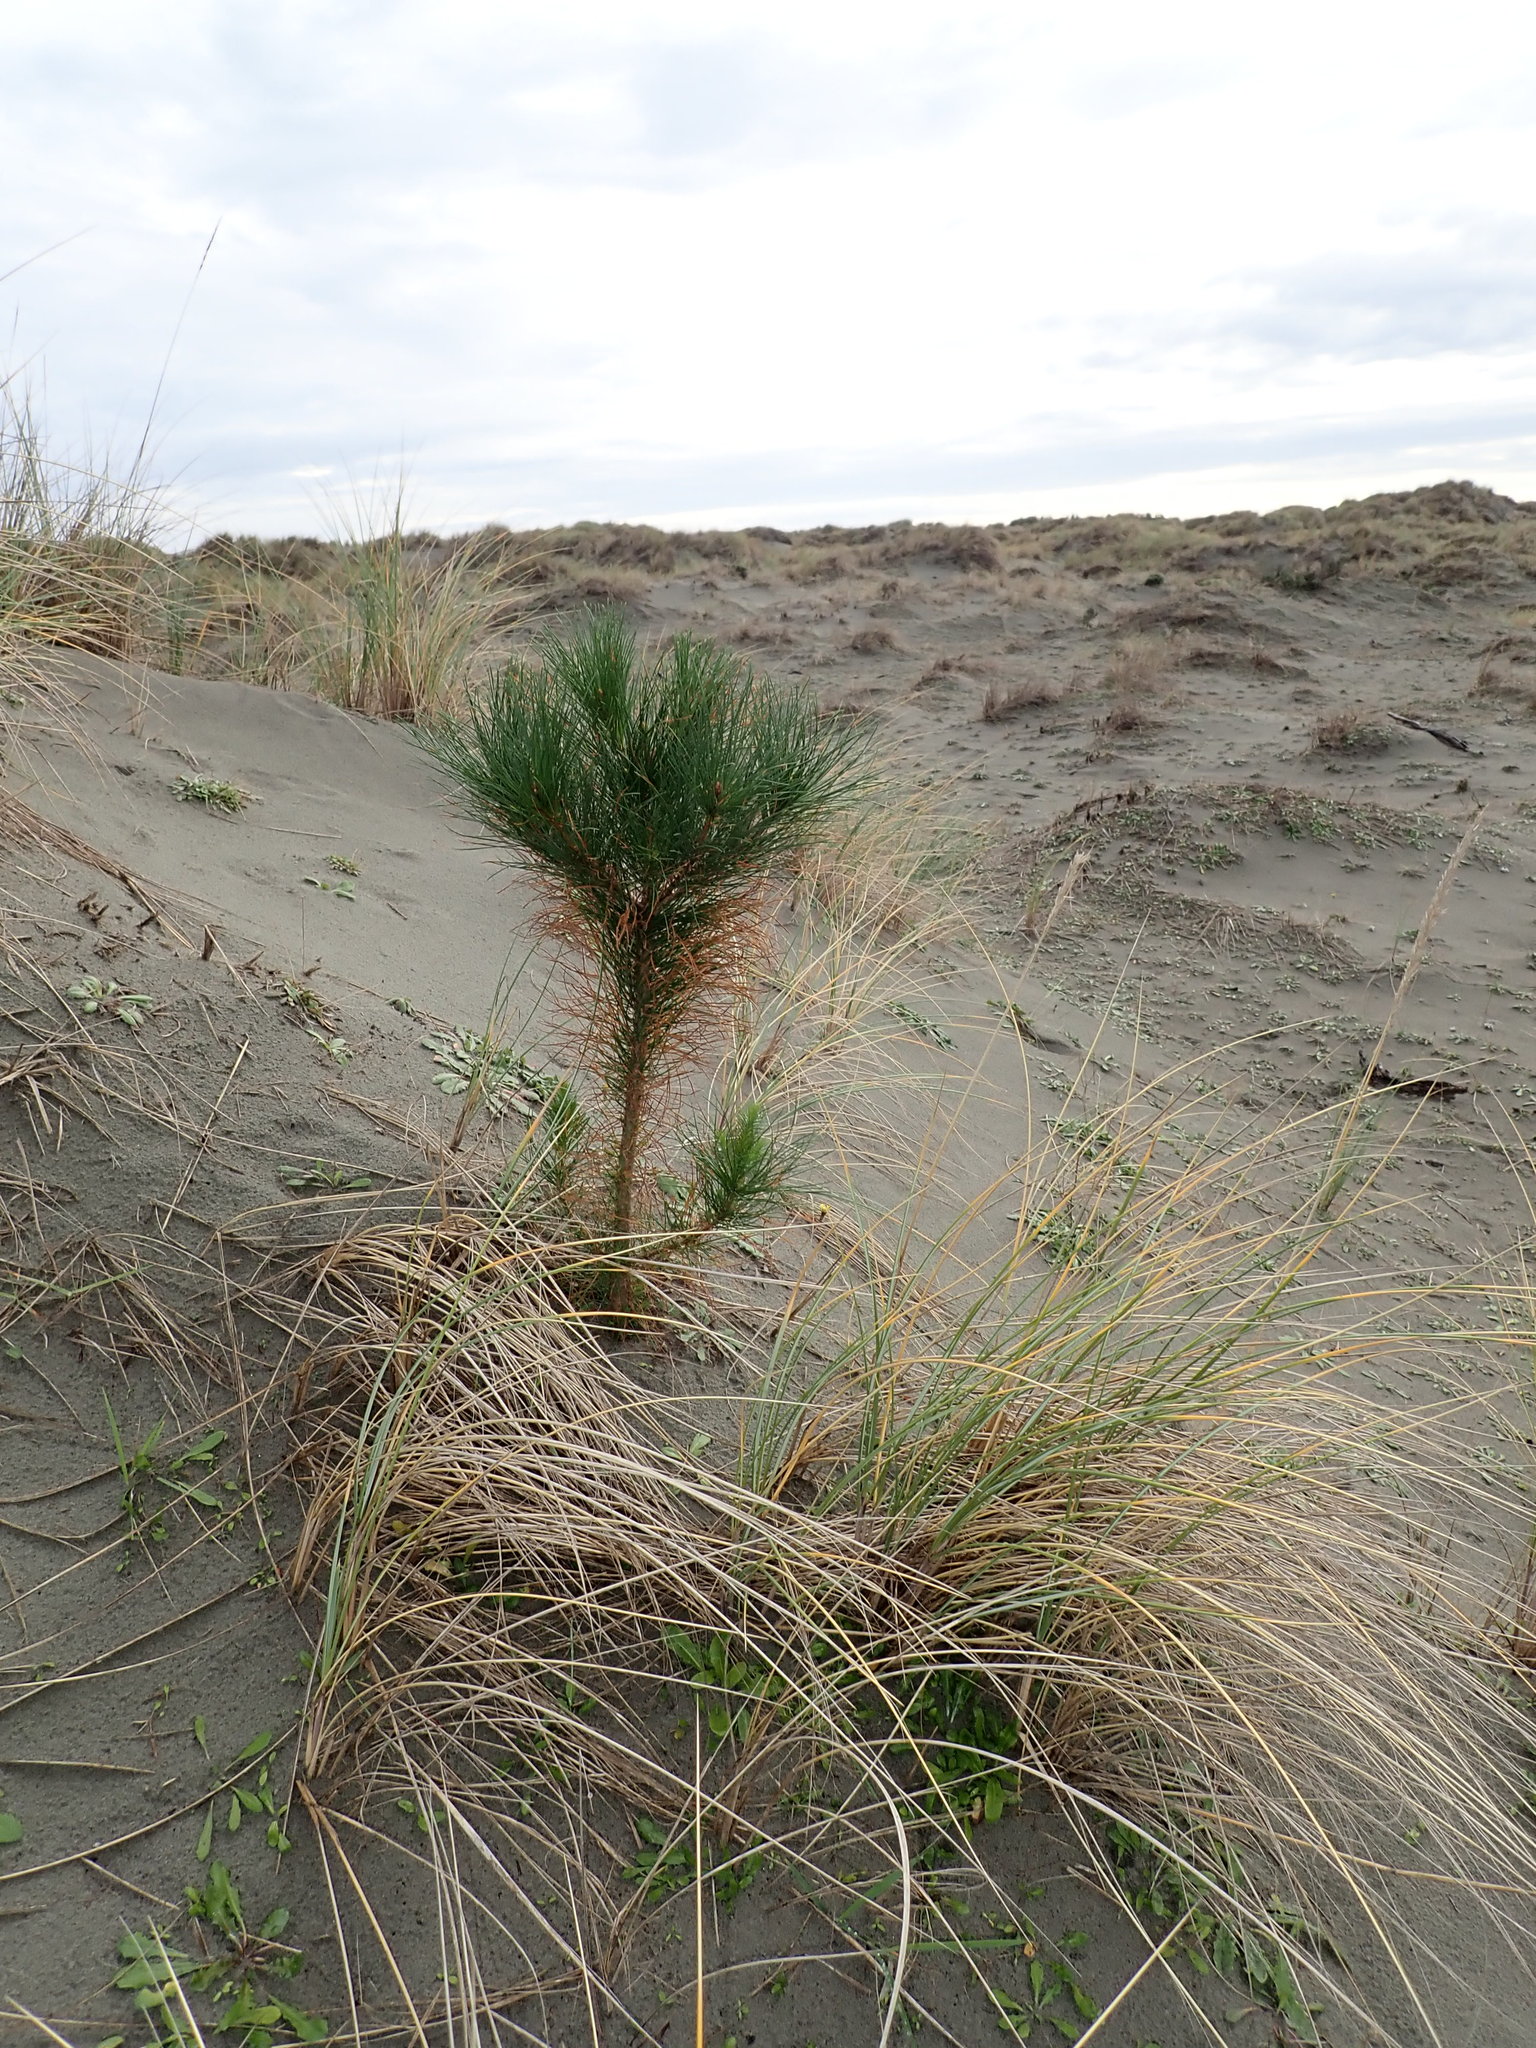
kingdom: Plantae
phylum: Tracheophyta
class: Pinopsida
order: Pinales
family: Pinaceae
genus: Pinus
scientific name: Pinus radiata
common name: Monterey pine
